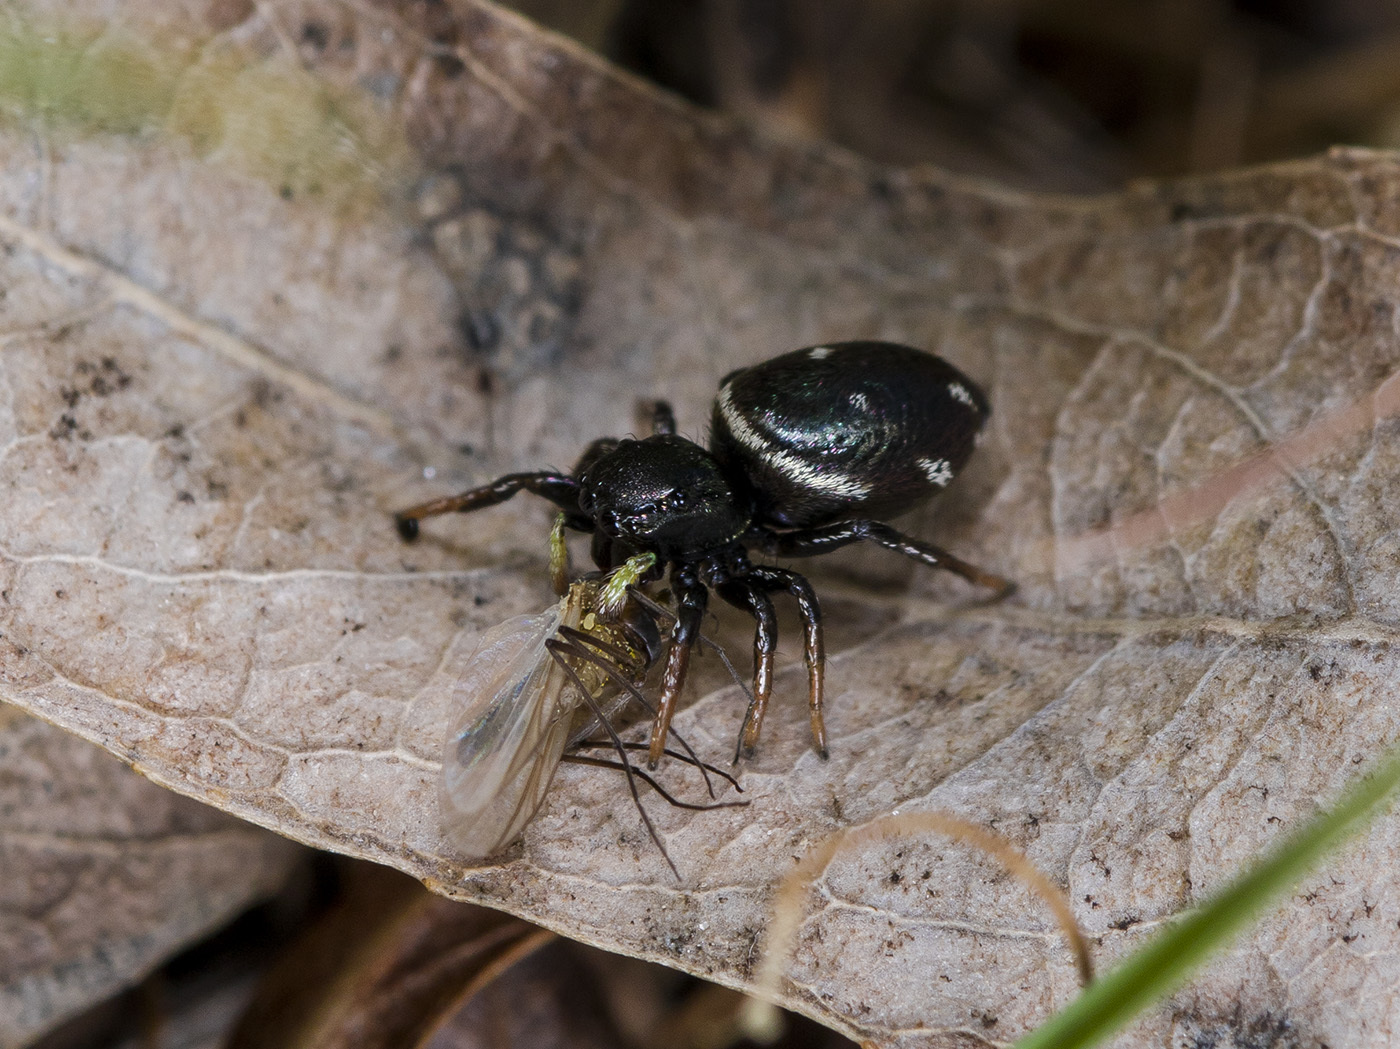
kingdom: Animalia
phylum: Arthropoda
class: Arachnida
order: Araneae
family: Salticidae
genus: Heliophanus
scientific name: Heliophanus chovdensis
